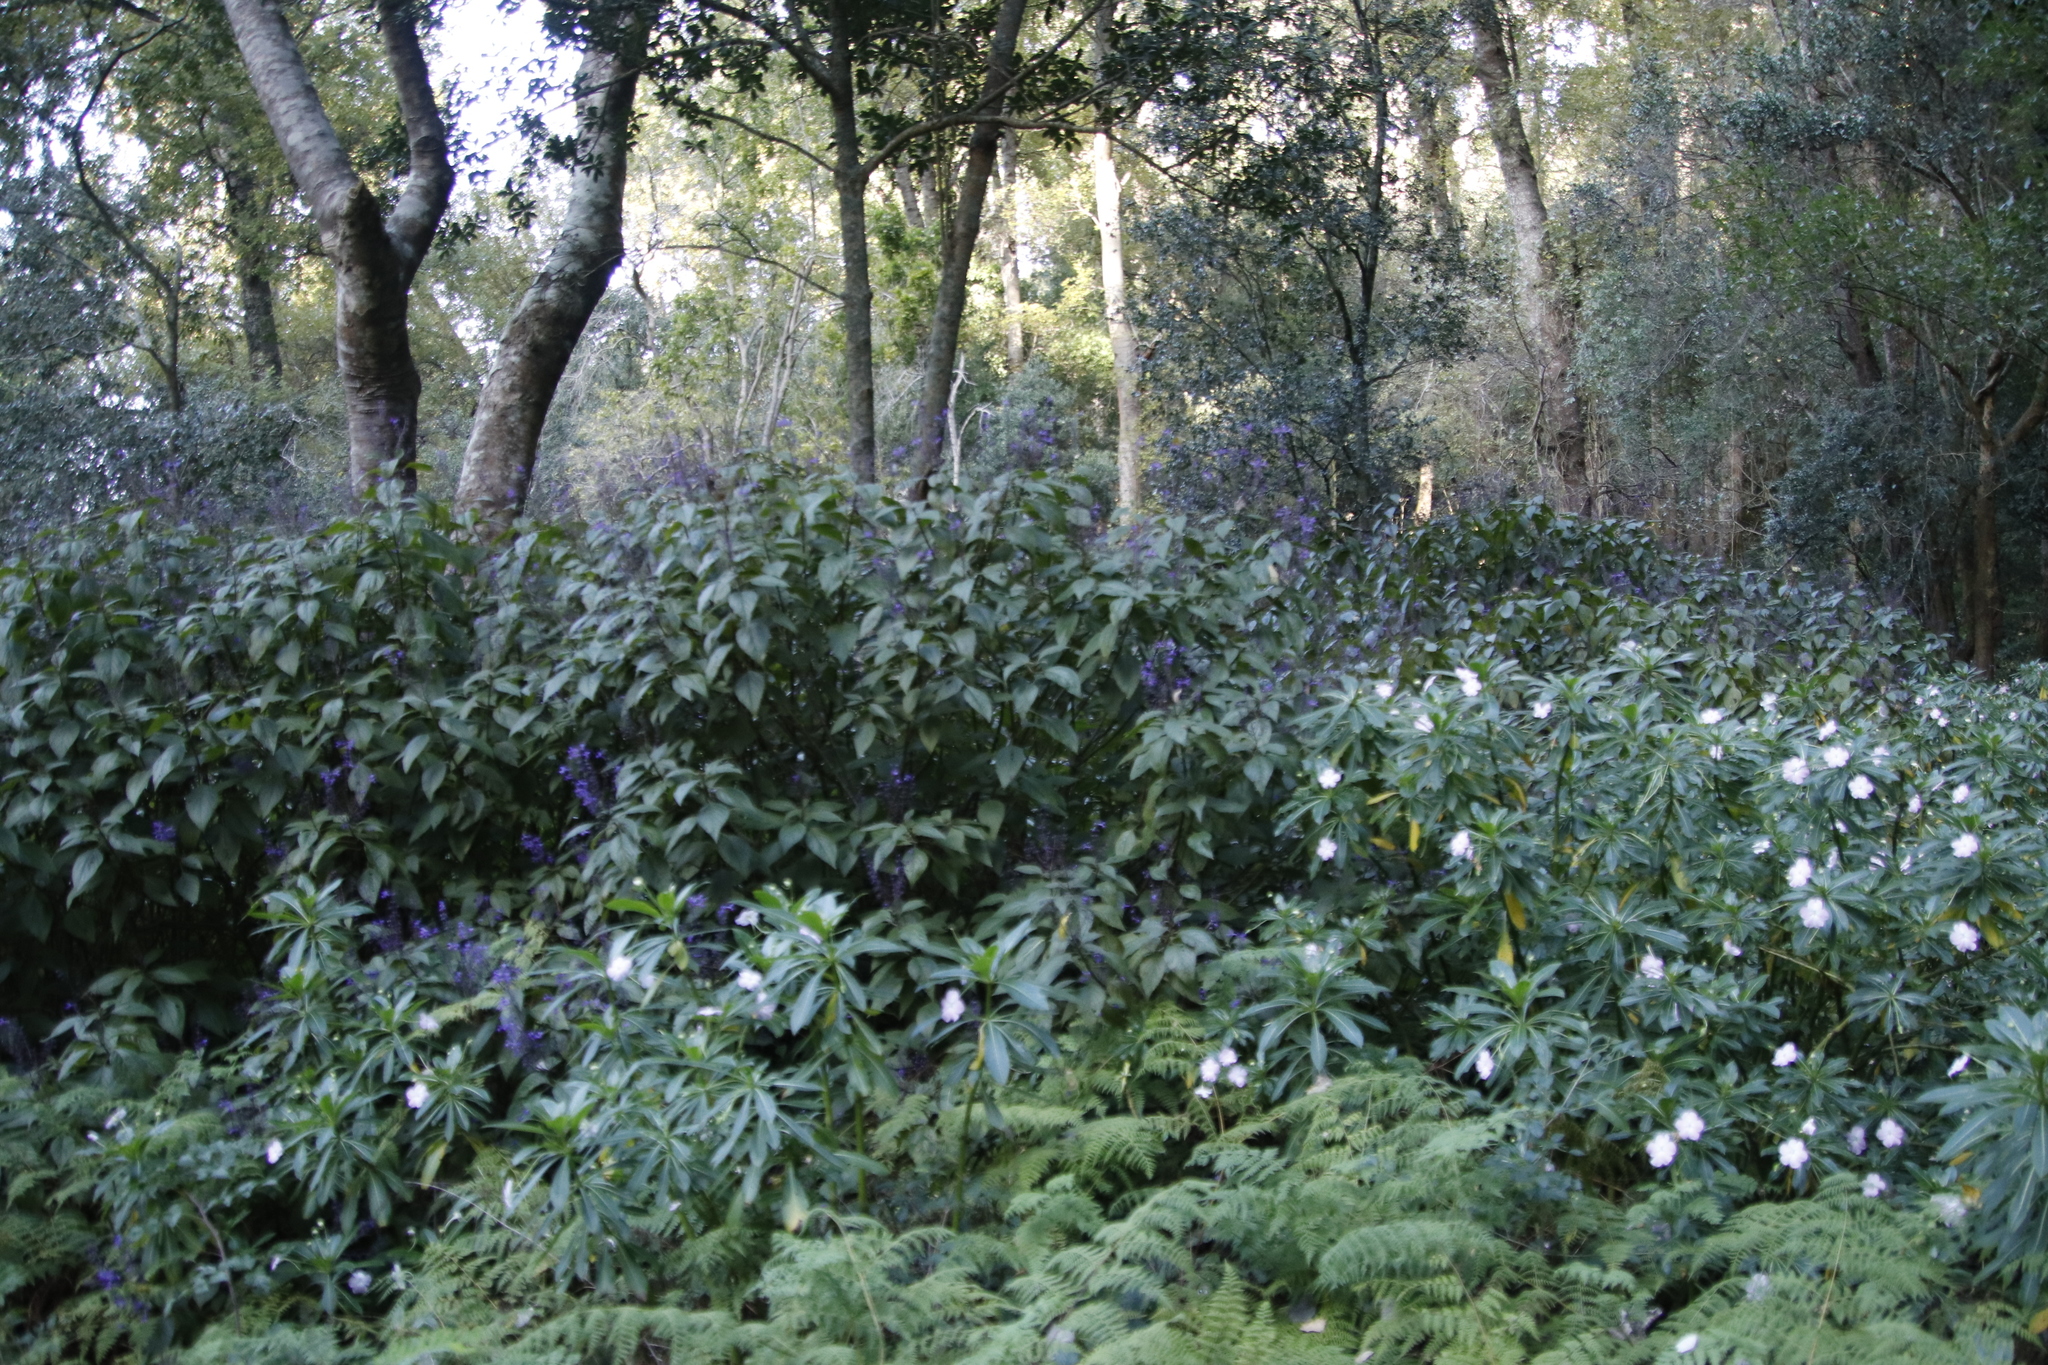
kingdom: Plantae
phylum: Tracheophyta
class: Magnoliopsida
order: Lamiales
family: Lamiaceae
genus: Plectranthus
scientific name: Plectranthus ecklonii
